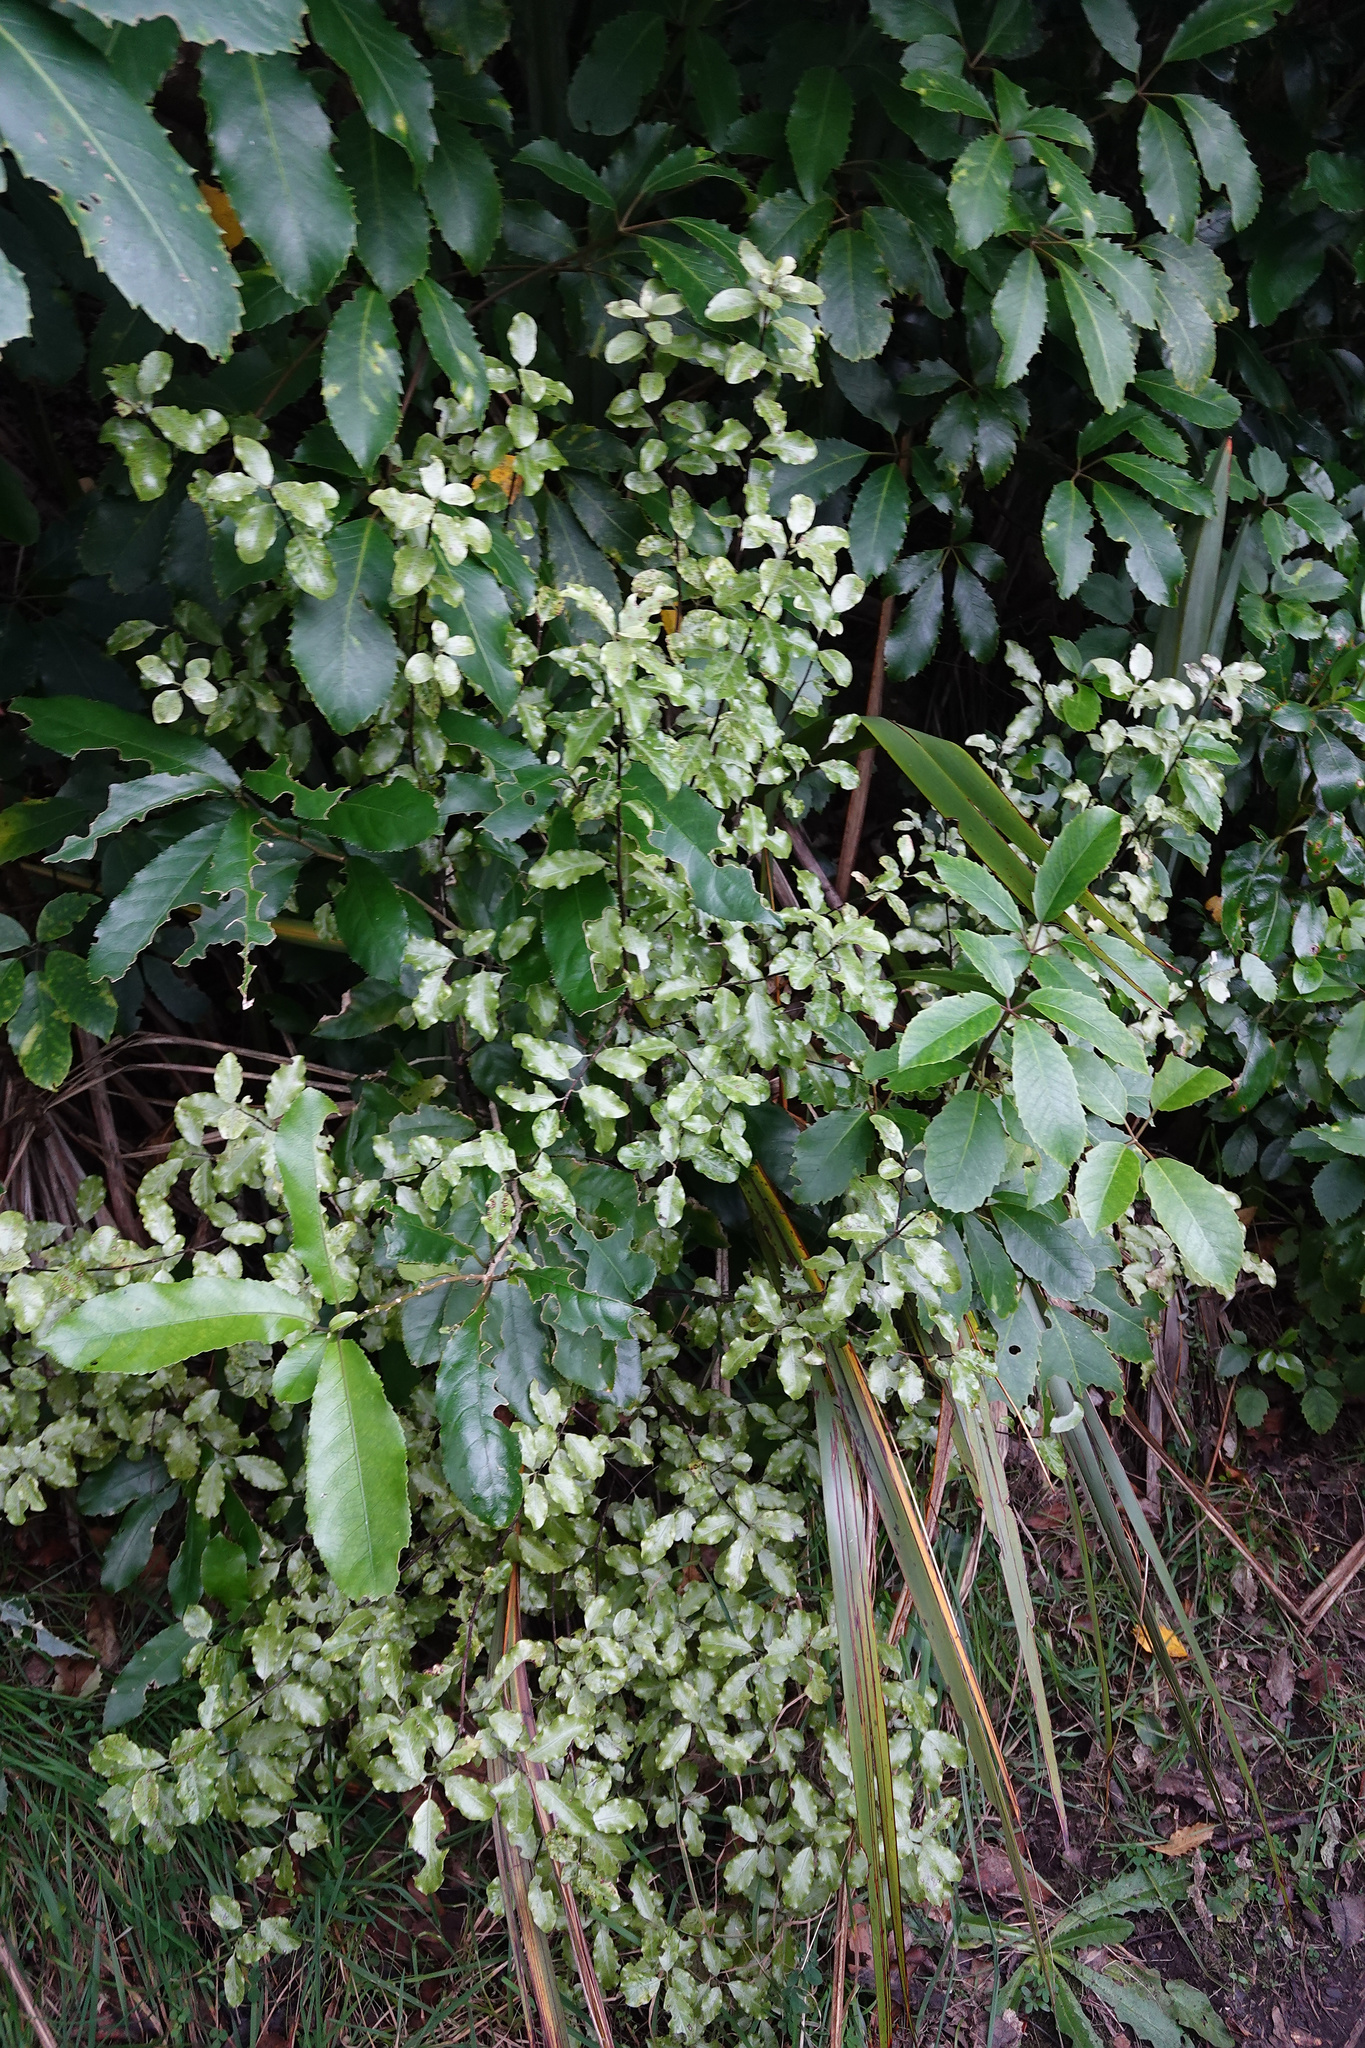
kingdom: Plantae
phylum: Tracheophyta
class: Magnoliopsida
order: Apiales
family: Pittosporaceae
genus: Pittosporum
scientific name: Pittosporum tenuifolium
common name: Kohuhu
